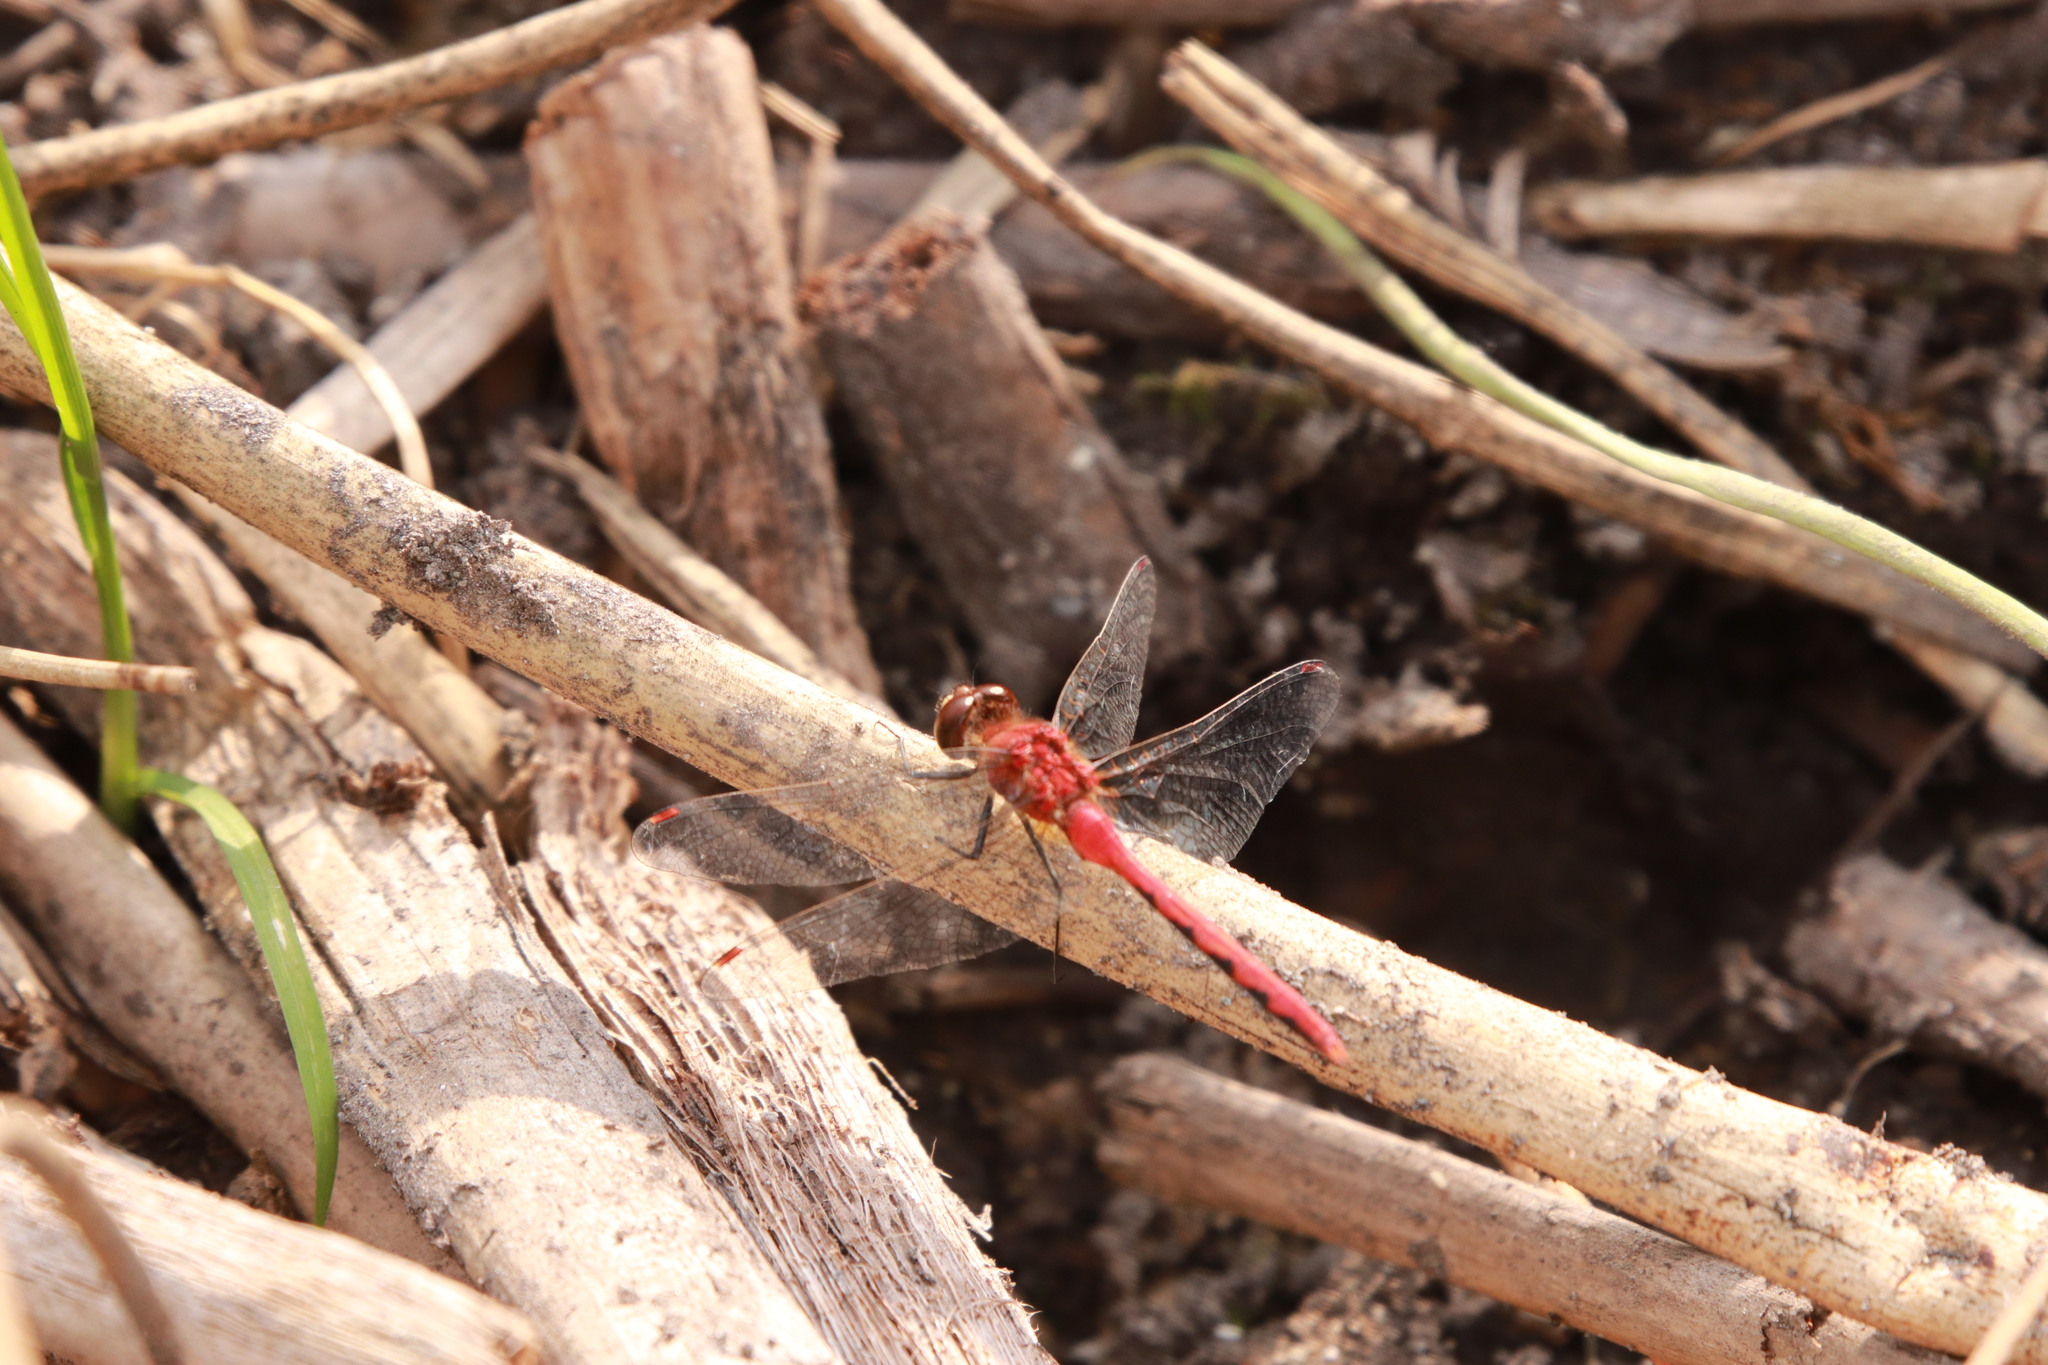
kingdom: Animalia
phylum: Arthropoda
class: Insecta
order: Odonata
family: Libellulidae
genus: Sympetrum
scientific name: Sympetrum obtrusum
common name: White-faced meadowhawk
